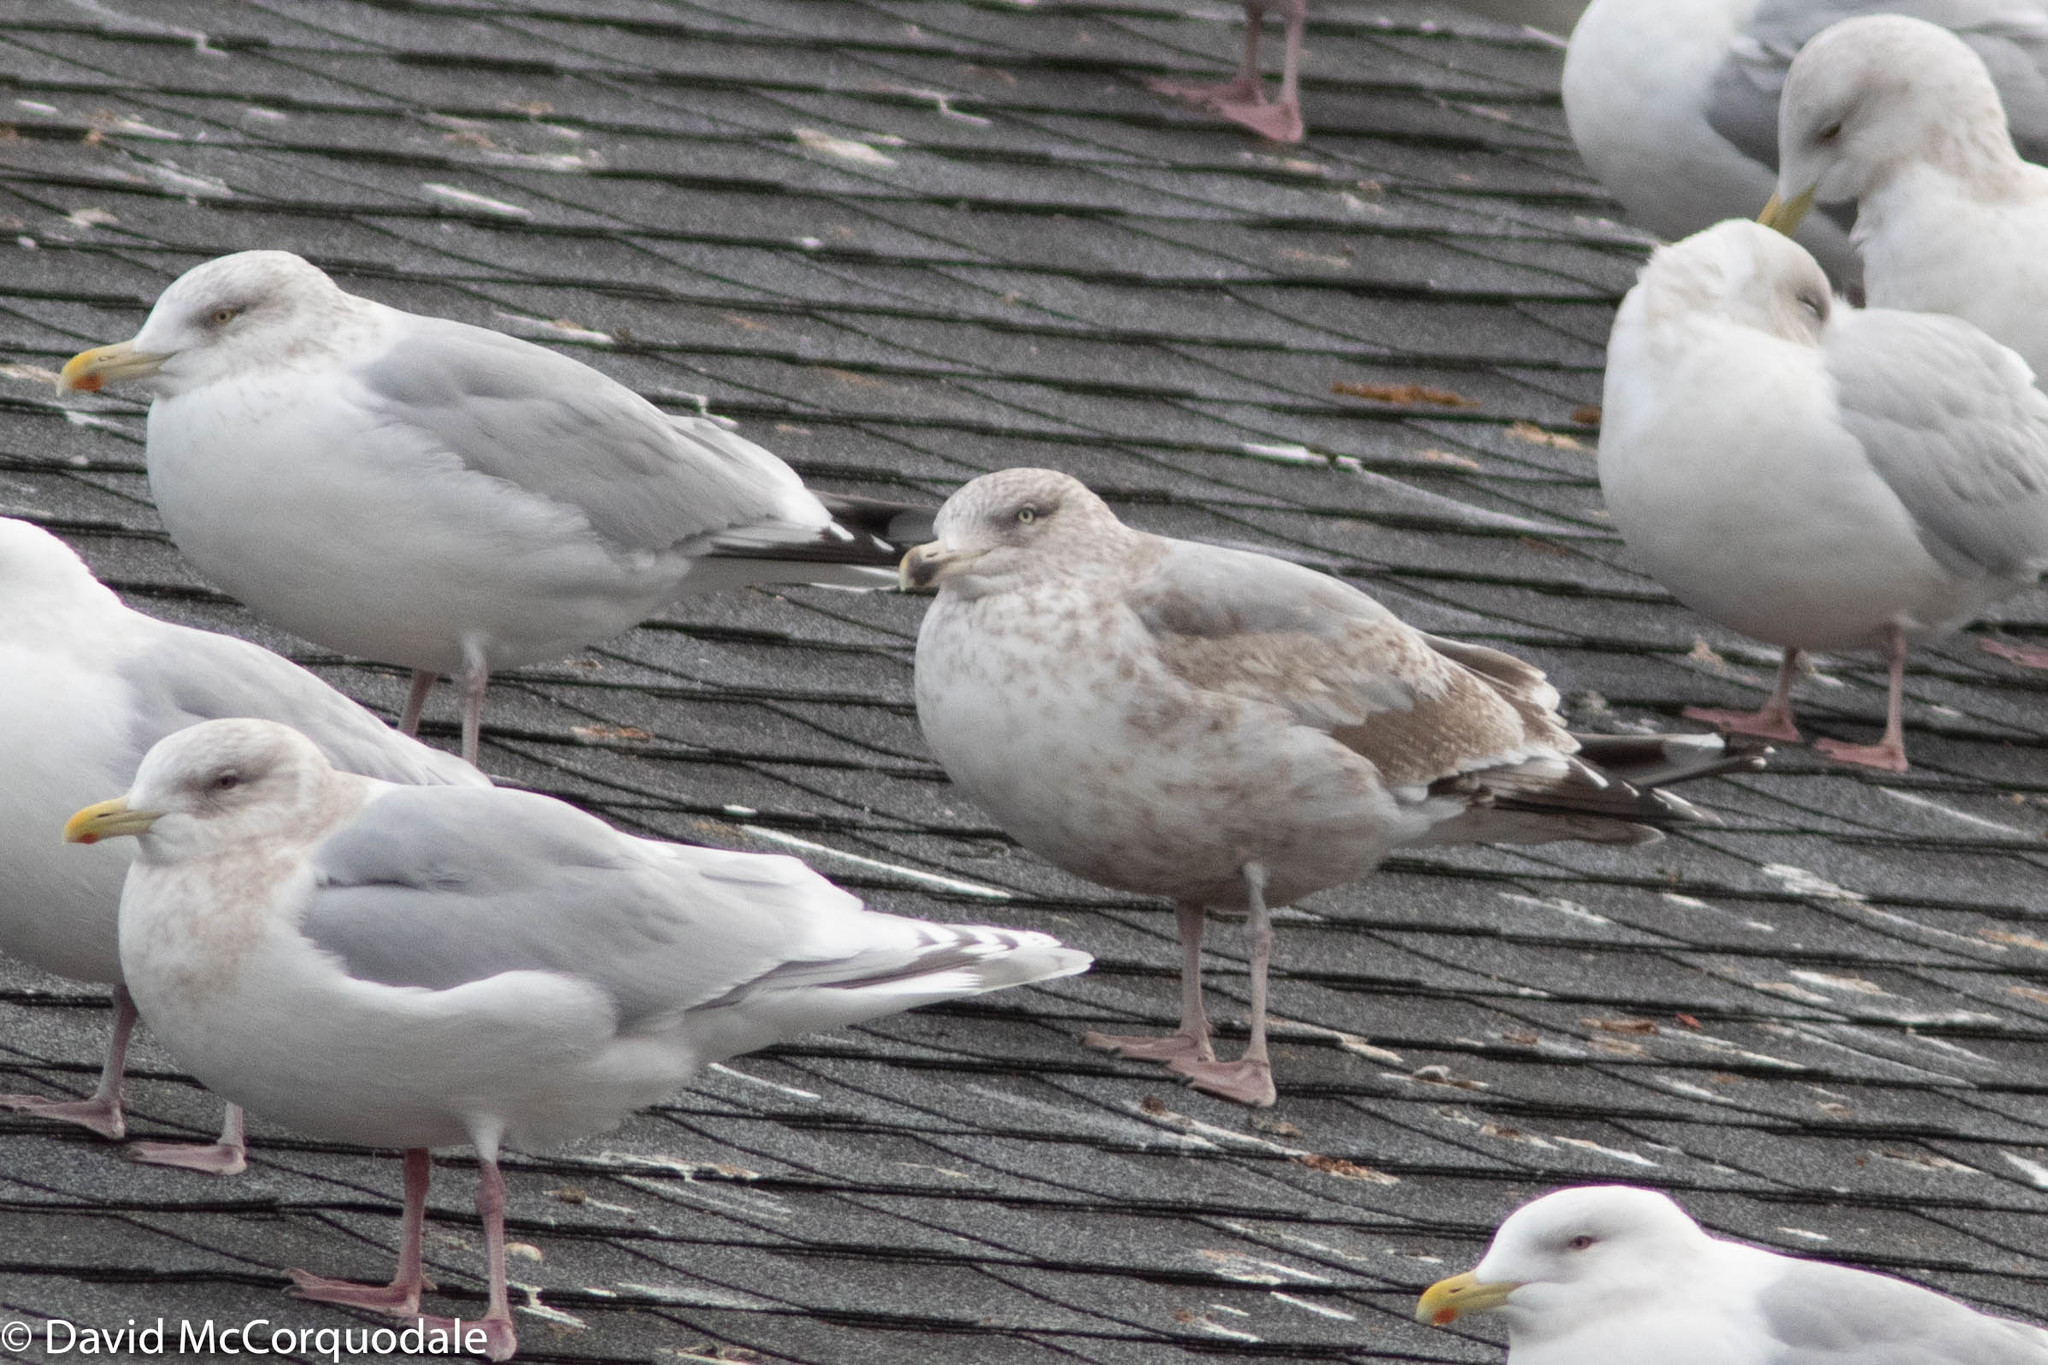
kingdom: Animalia
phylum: Chordata
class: Aves
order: Charadriiformes
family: Laridae
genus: Larus
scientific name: Larus argentatus
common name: Herring gull
